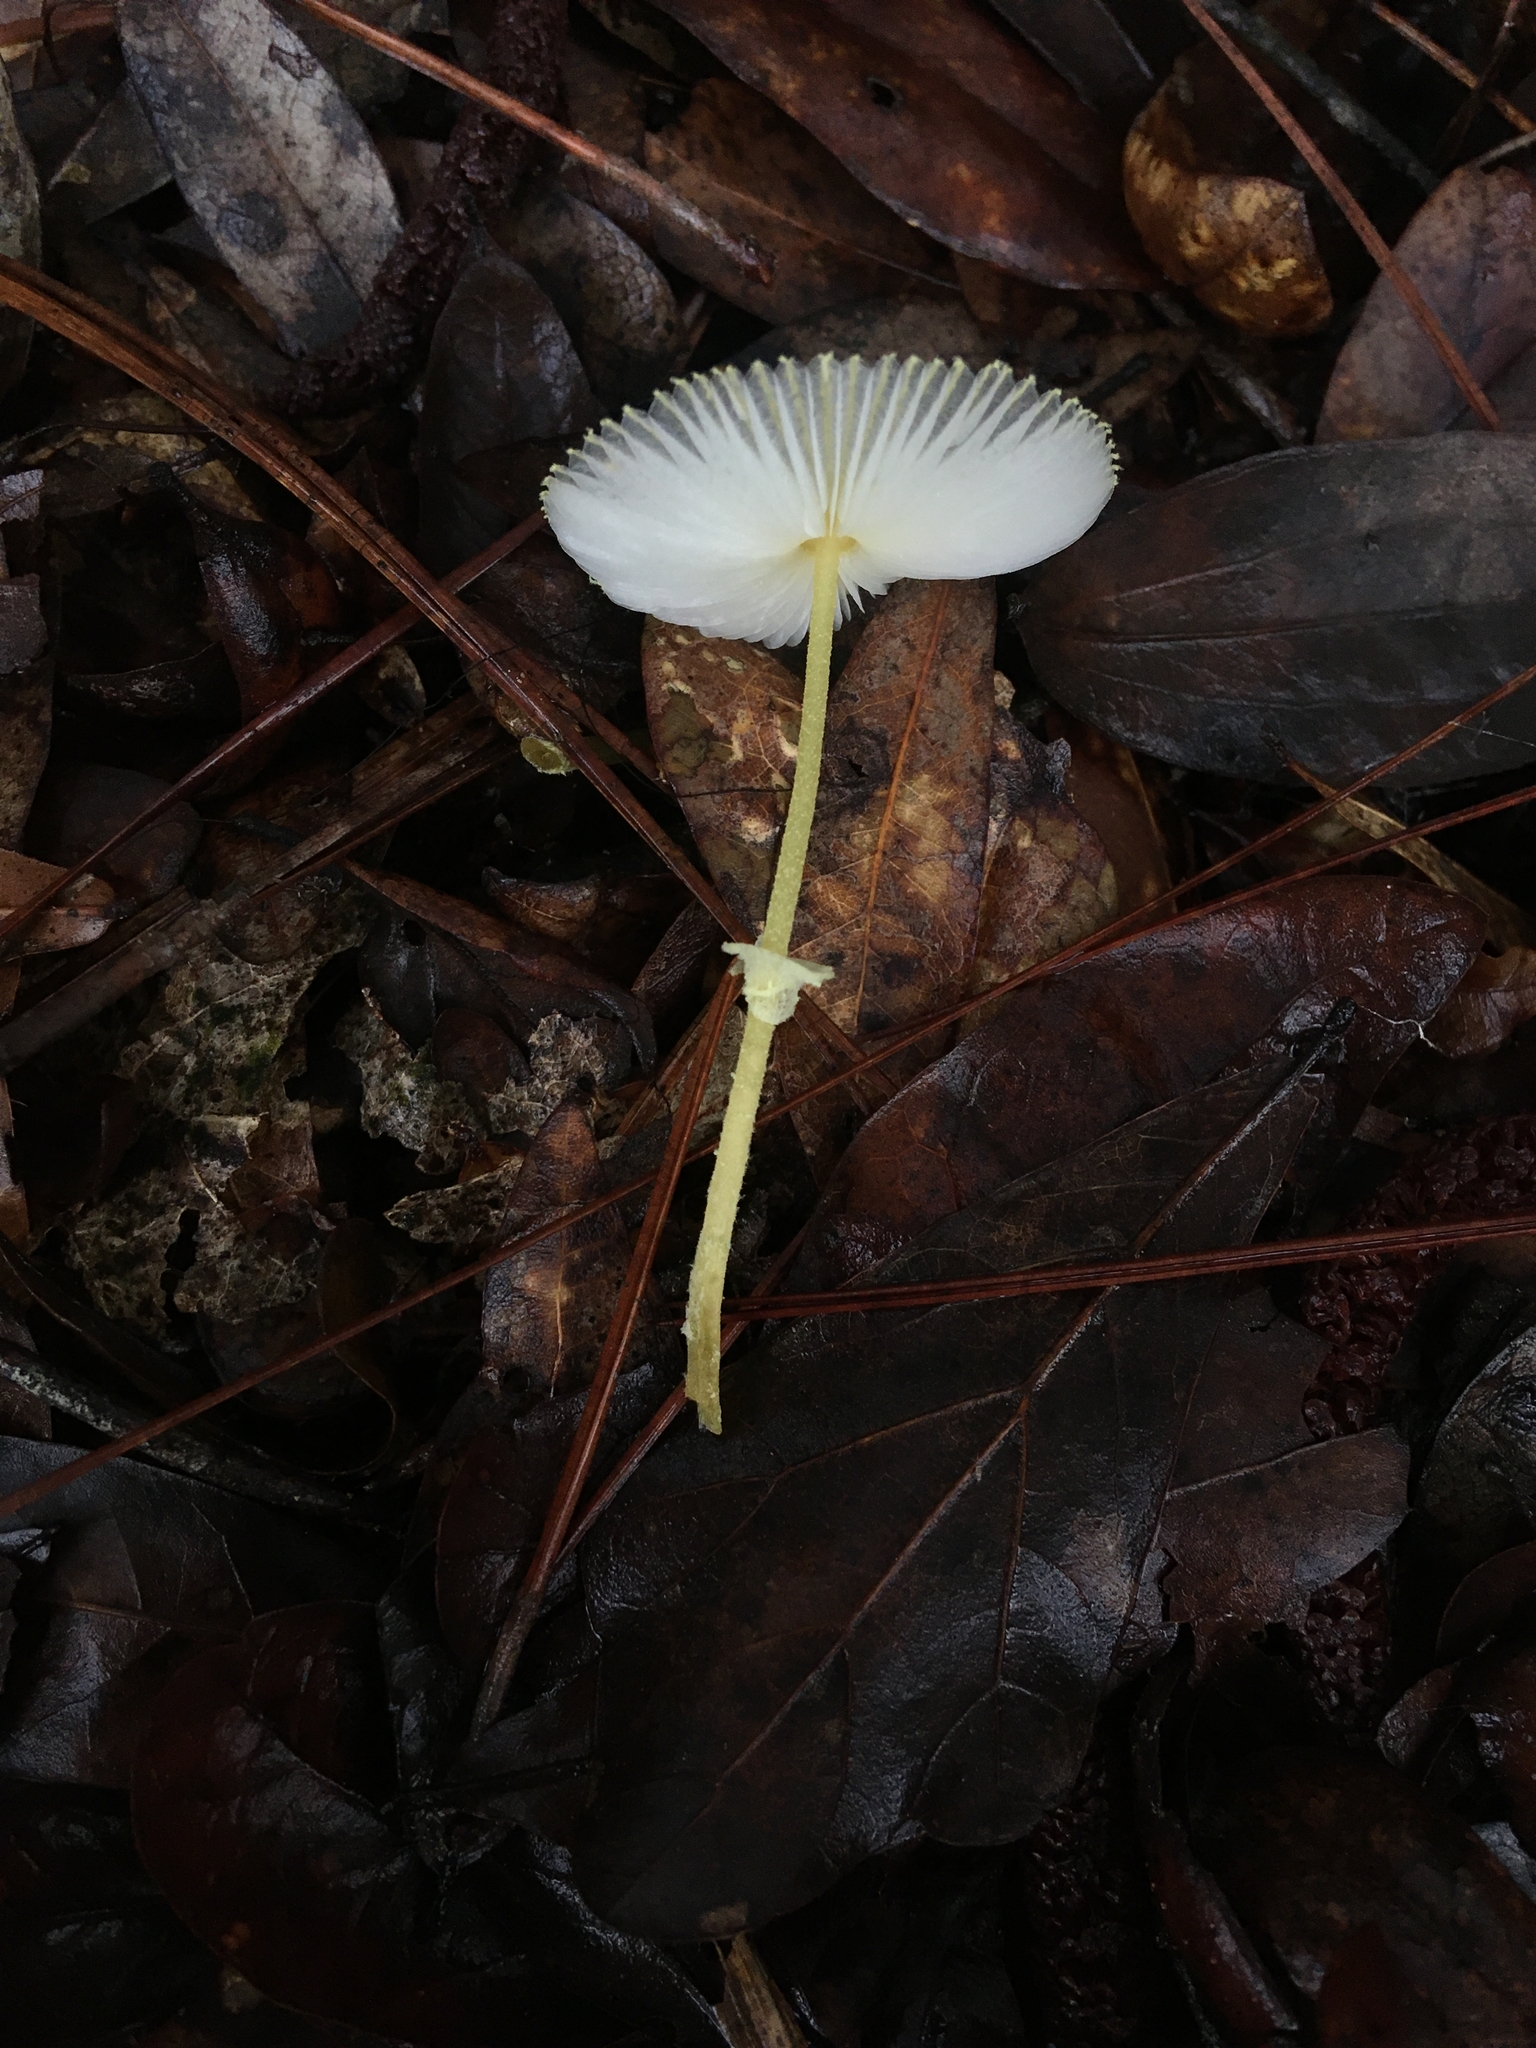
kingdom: Fungi
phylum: Basidiomycota
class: Agaricomycetes
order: Agaricales
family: Agaricaceae
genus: Leucocoprinus
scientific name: Leucocoprinus fragilissimus
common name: Fragile dapperling
